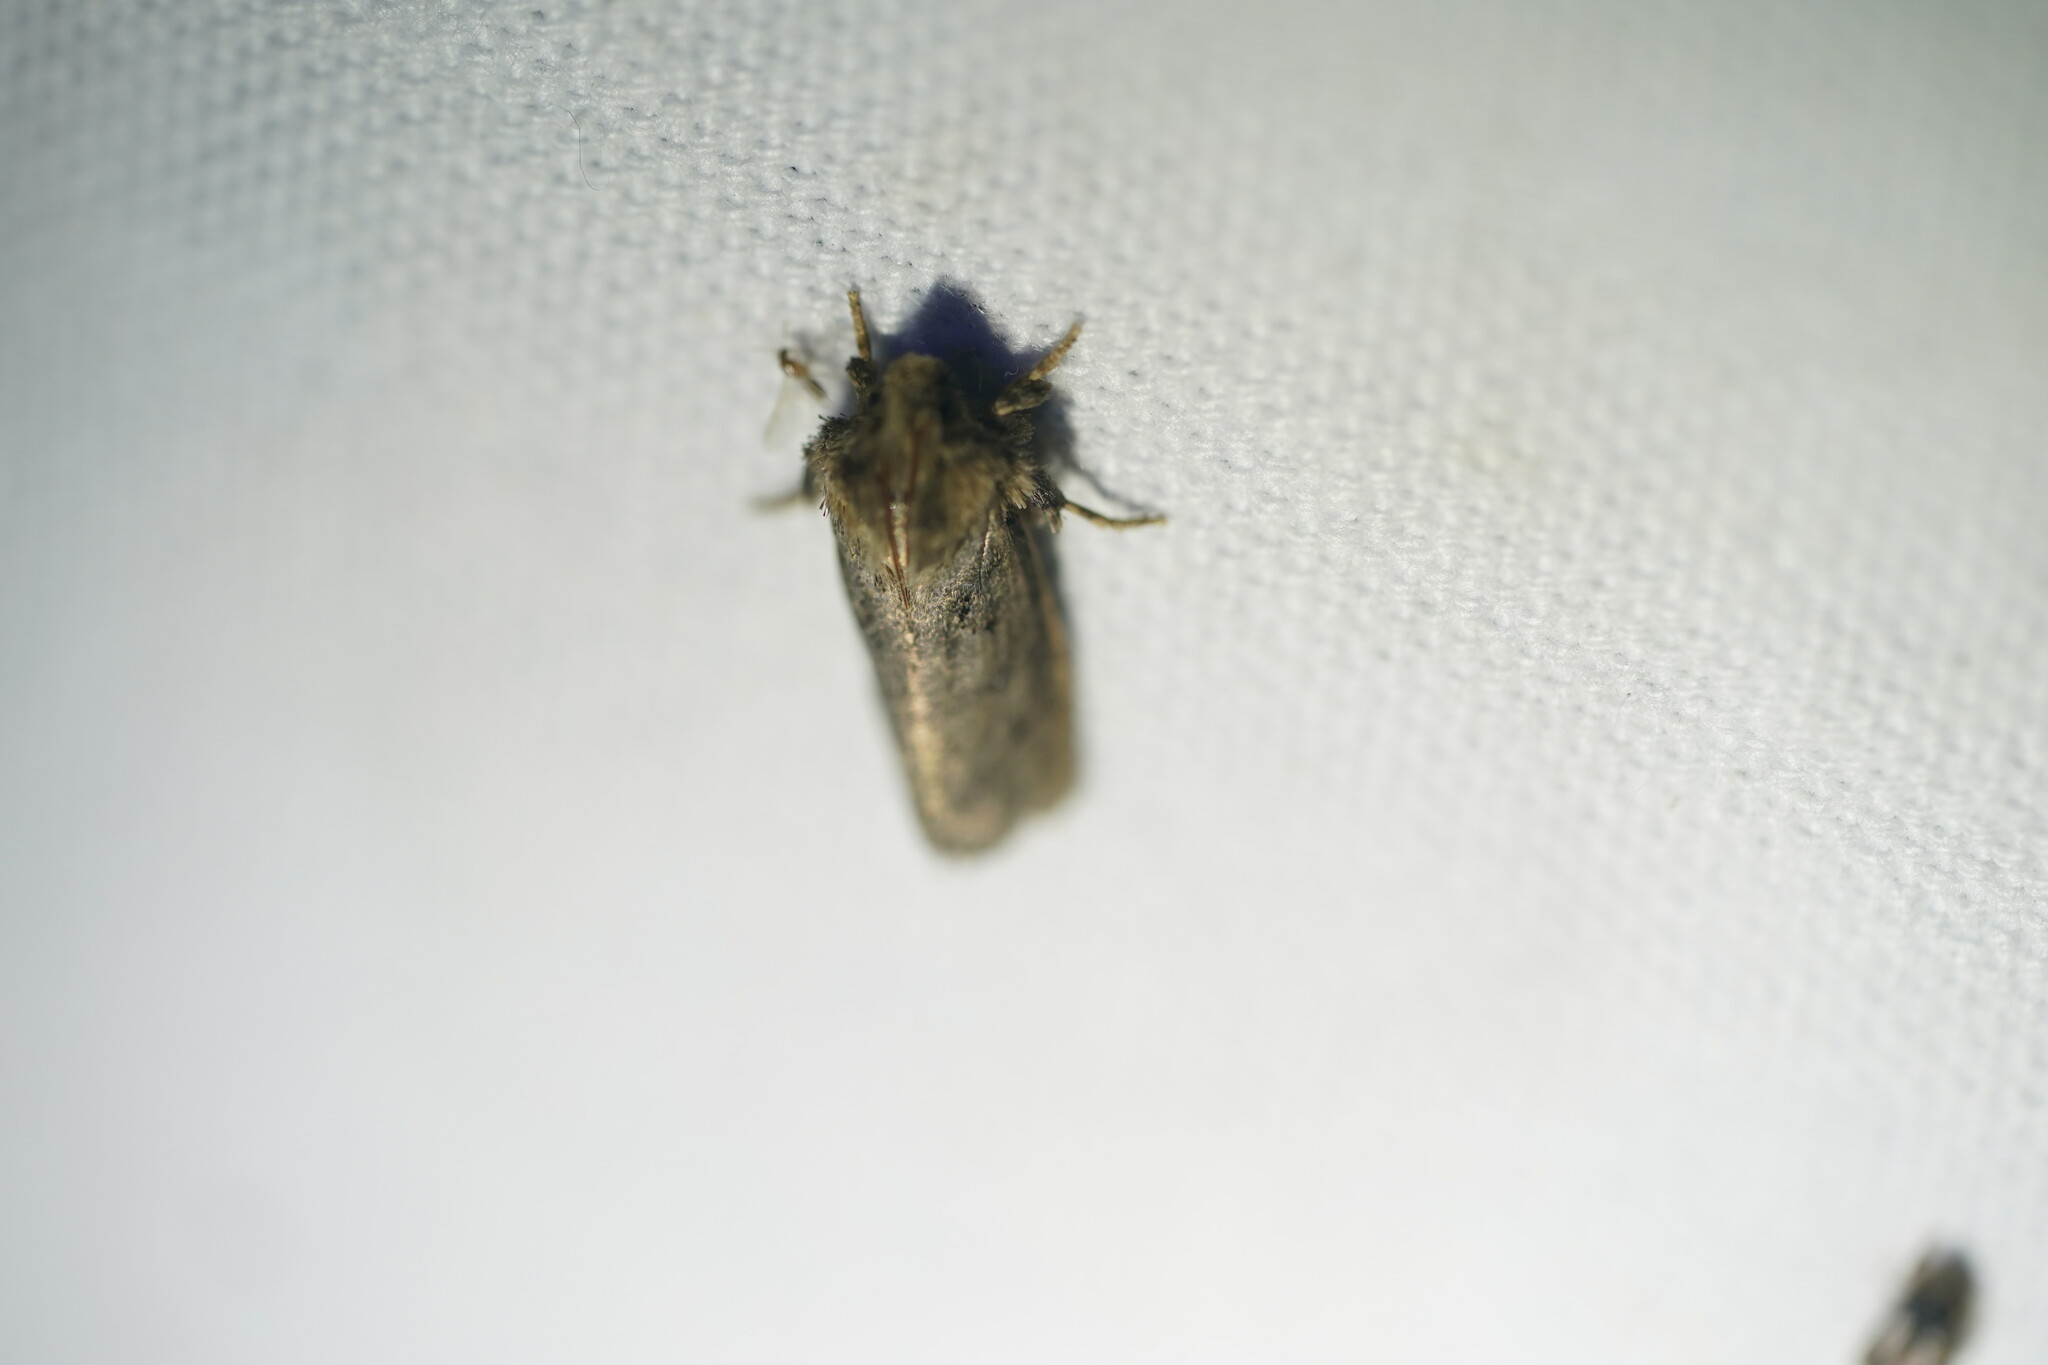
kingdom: Animalia
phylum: Arthropoda
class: Insecta
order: Lepidoptera
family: Tineidae
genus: Acrolophus
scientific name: Acrolophus arcanella
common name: Arcane grass tubeworm moth
